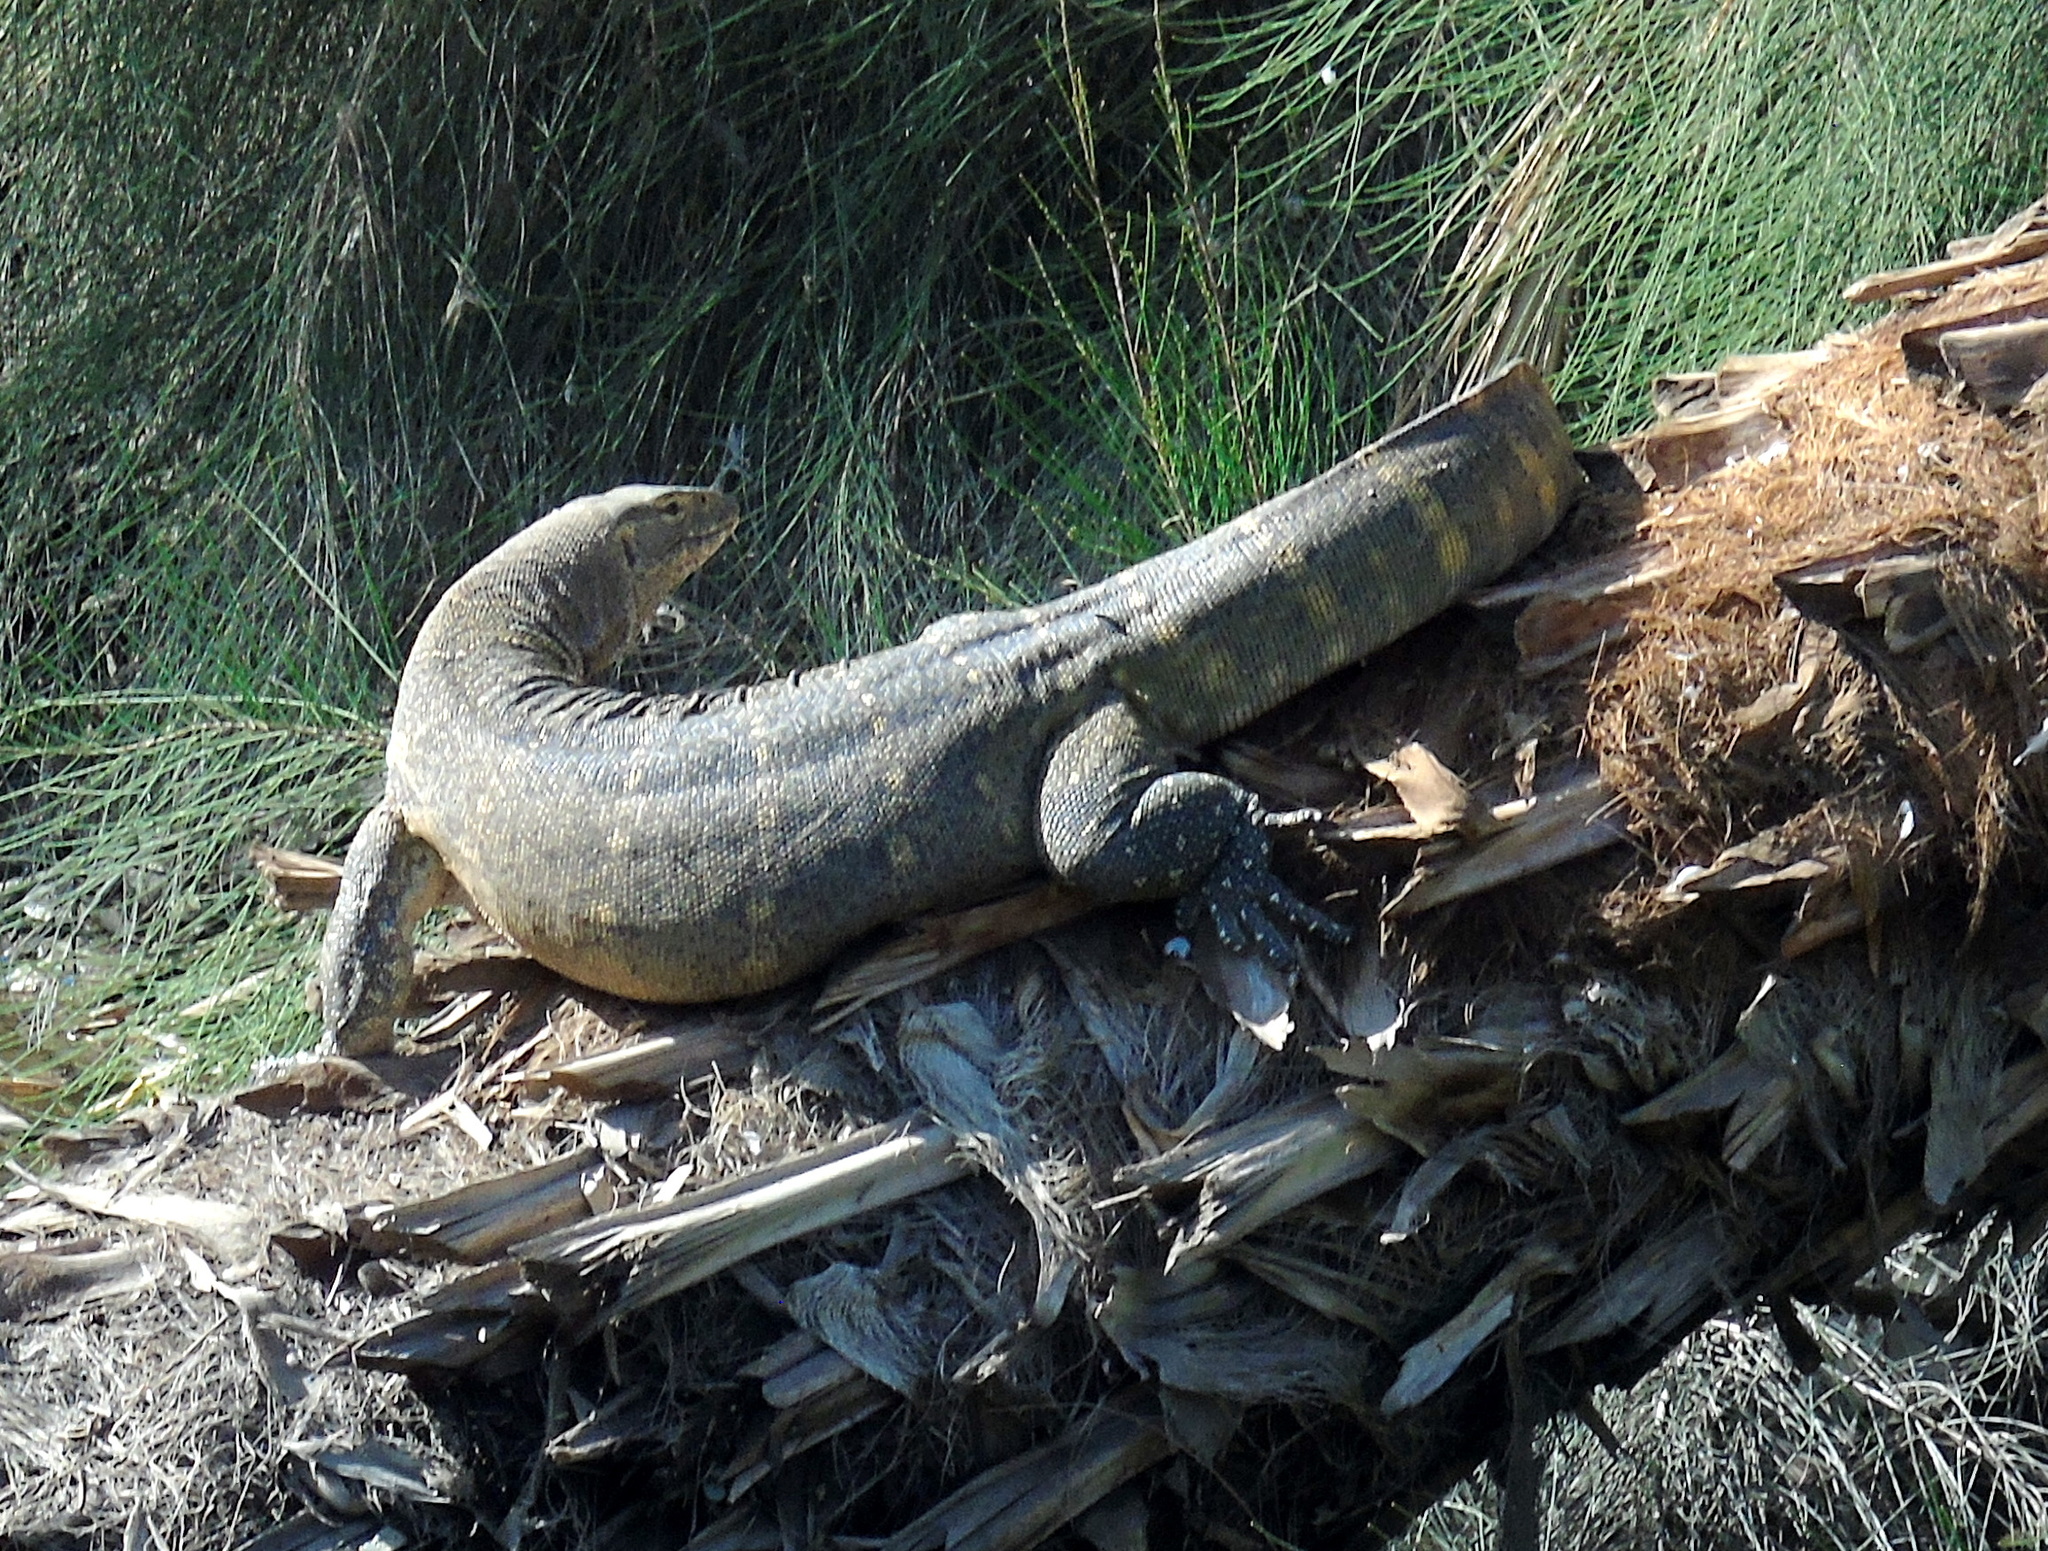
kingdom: Animalia
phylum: Chordata
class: Squamata
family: Varanidae
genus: Varanus
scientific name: Varanus niloticus
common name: Nile monitor
